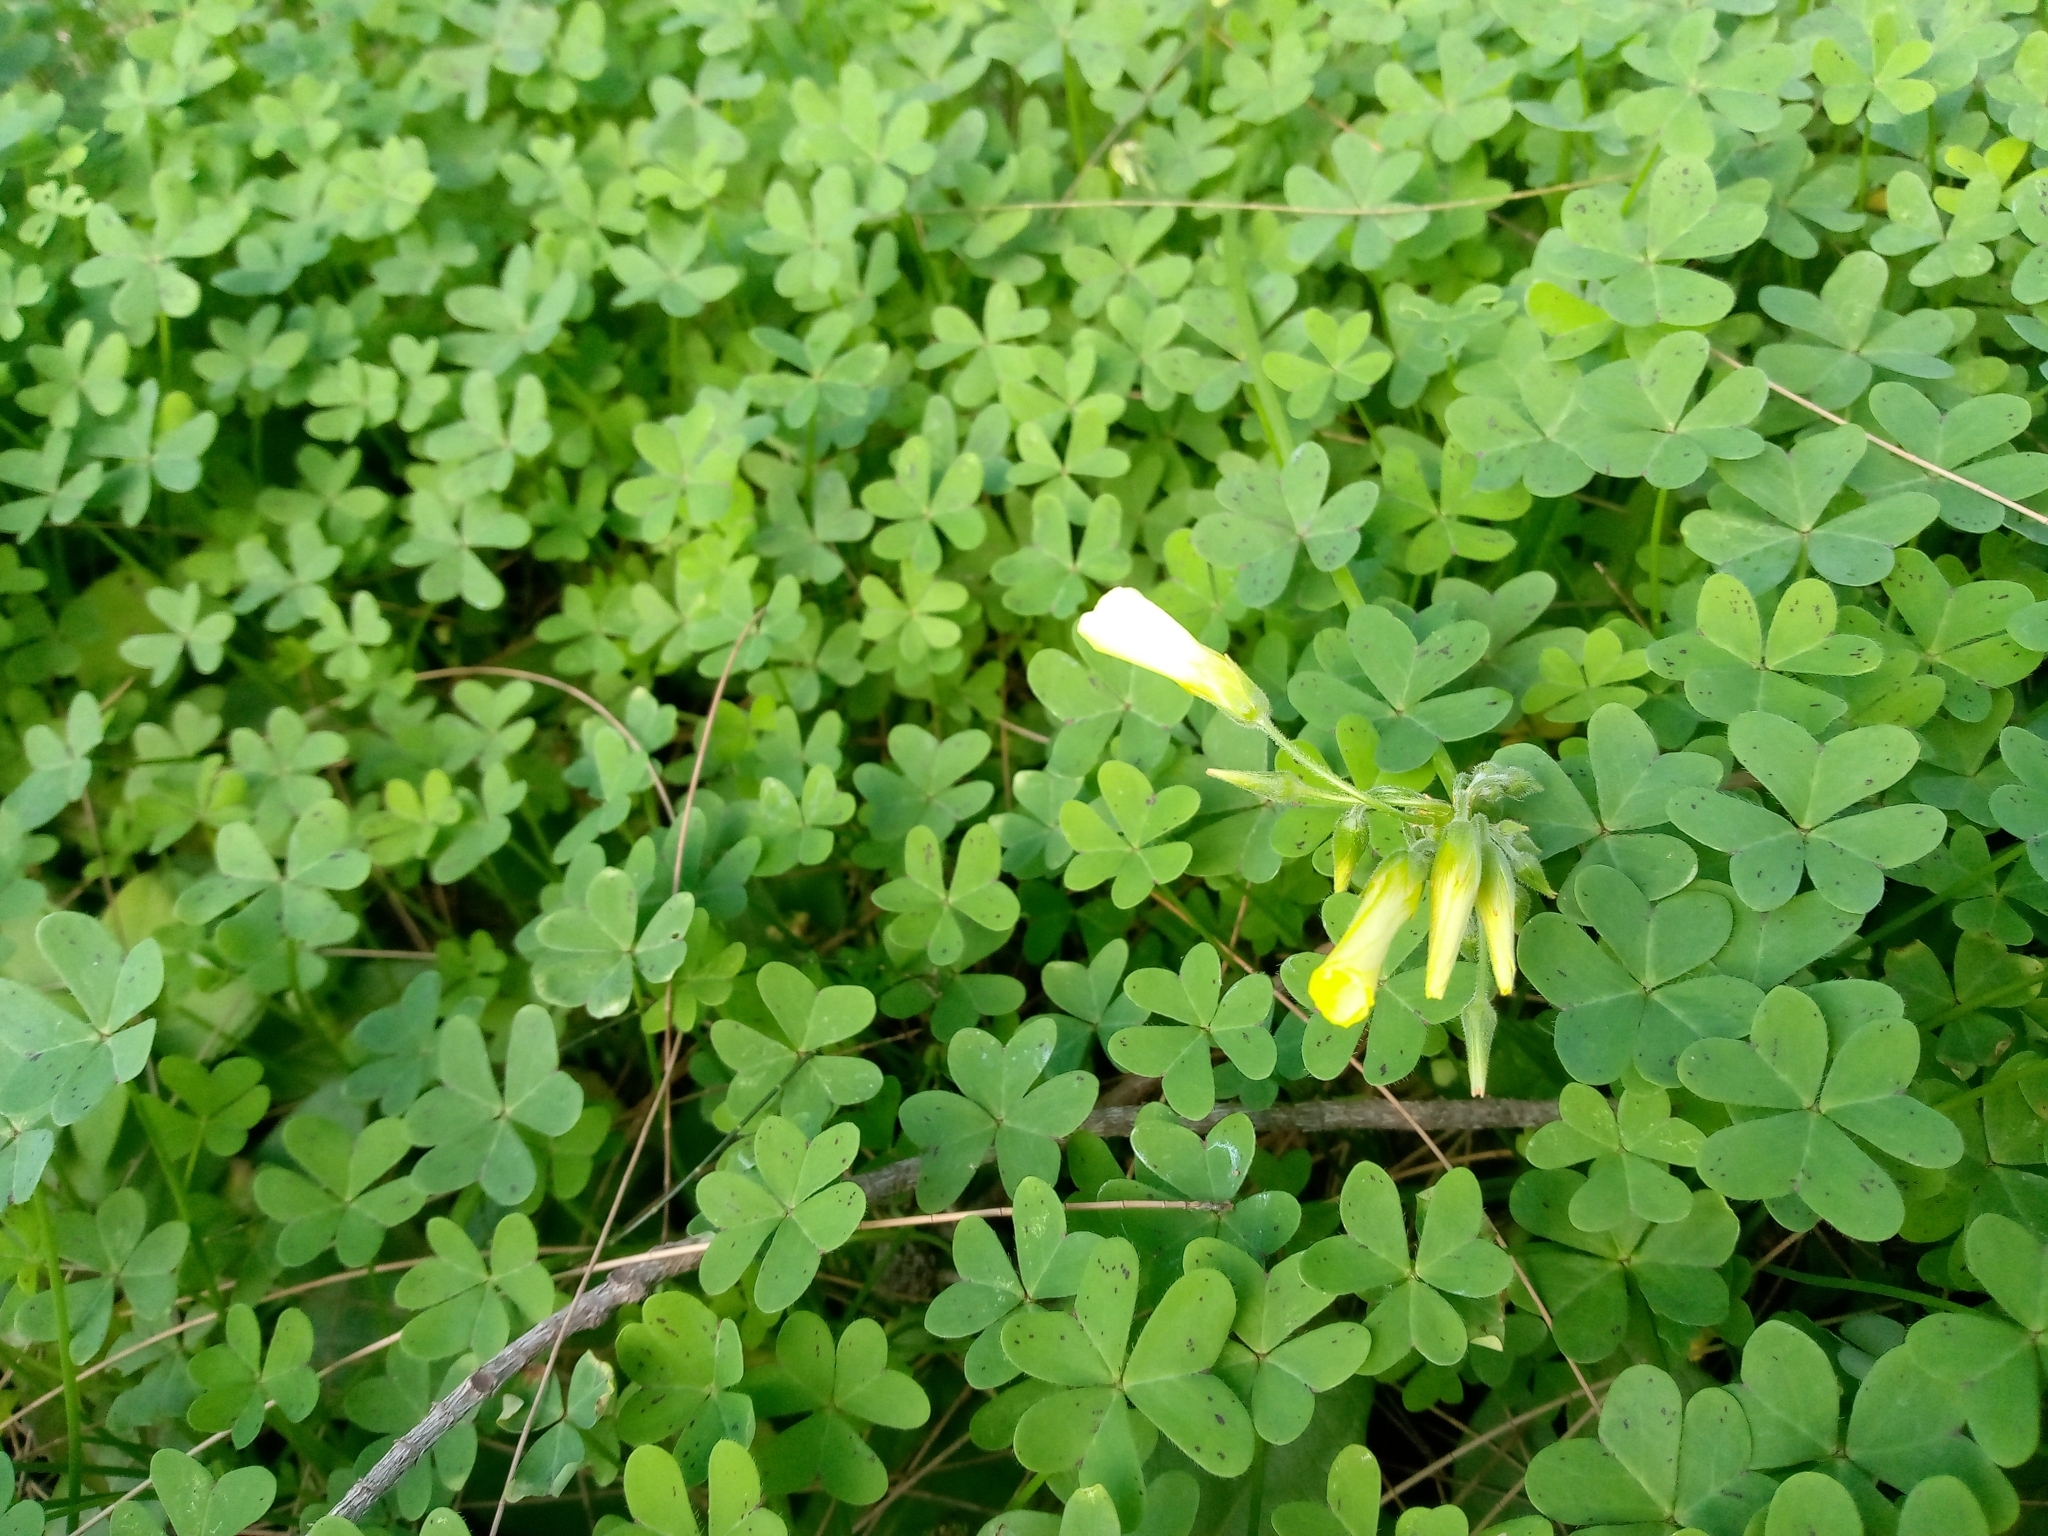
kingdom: Plantae
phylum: Tracheophyta
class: Magnoliopsida
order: Oxalidales
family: Oxalidaceae
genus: Oxalis
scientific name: Oxalis pes-caprae
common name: Bermuda-buttercup
